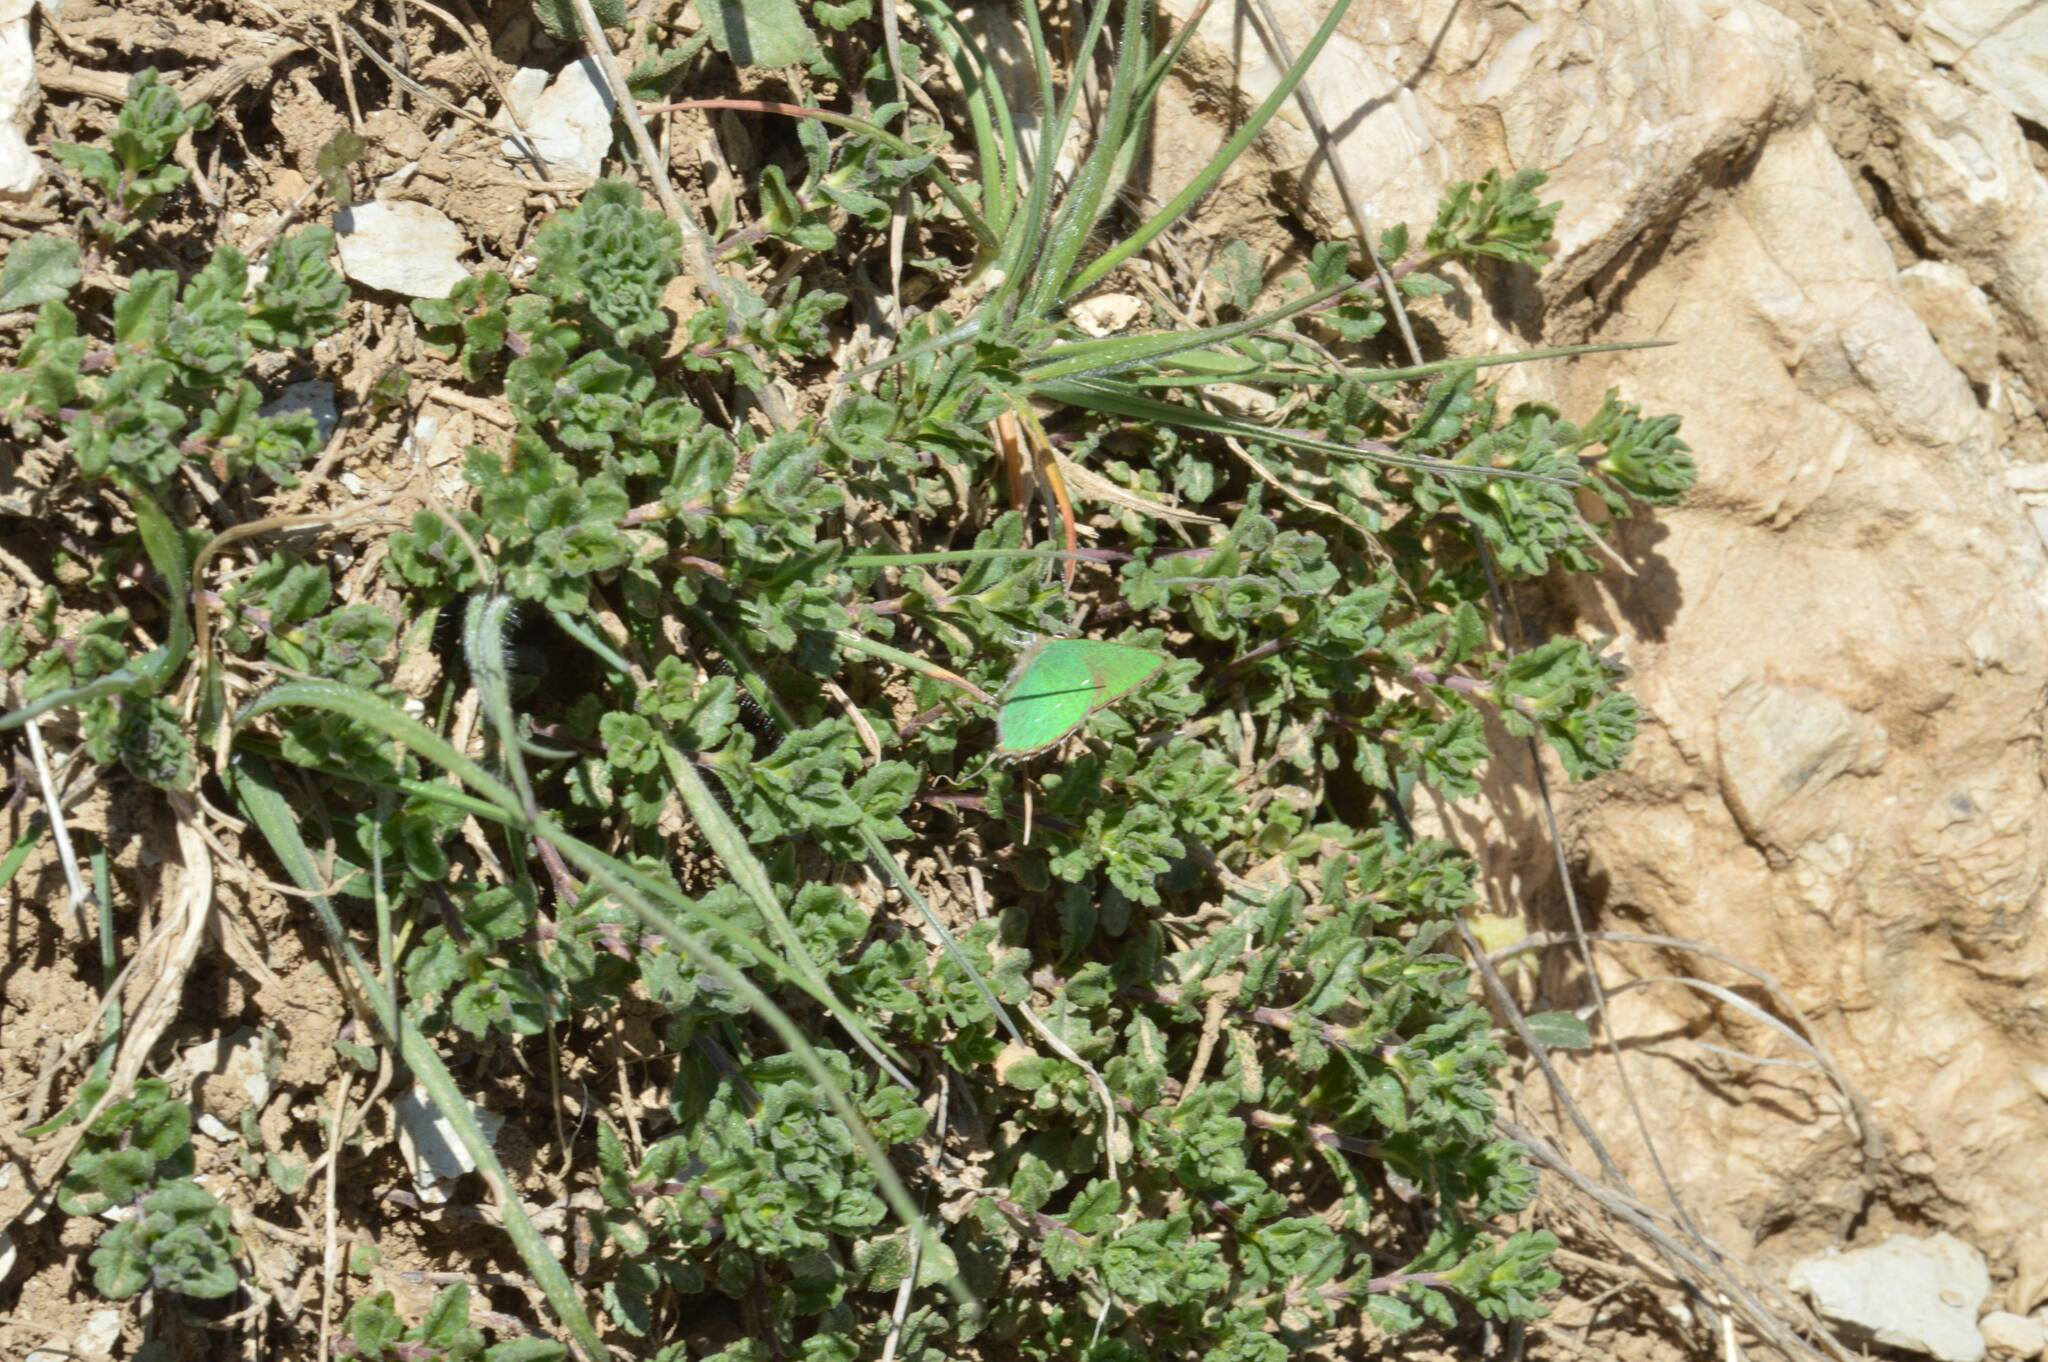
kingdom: Animalia
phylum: Arthropoda
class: Insecta
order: Lepidoptera
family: Lycaenidae
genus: Callophrys
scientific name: Callophrys rubi
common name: Green hairstreak
